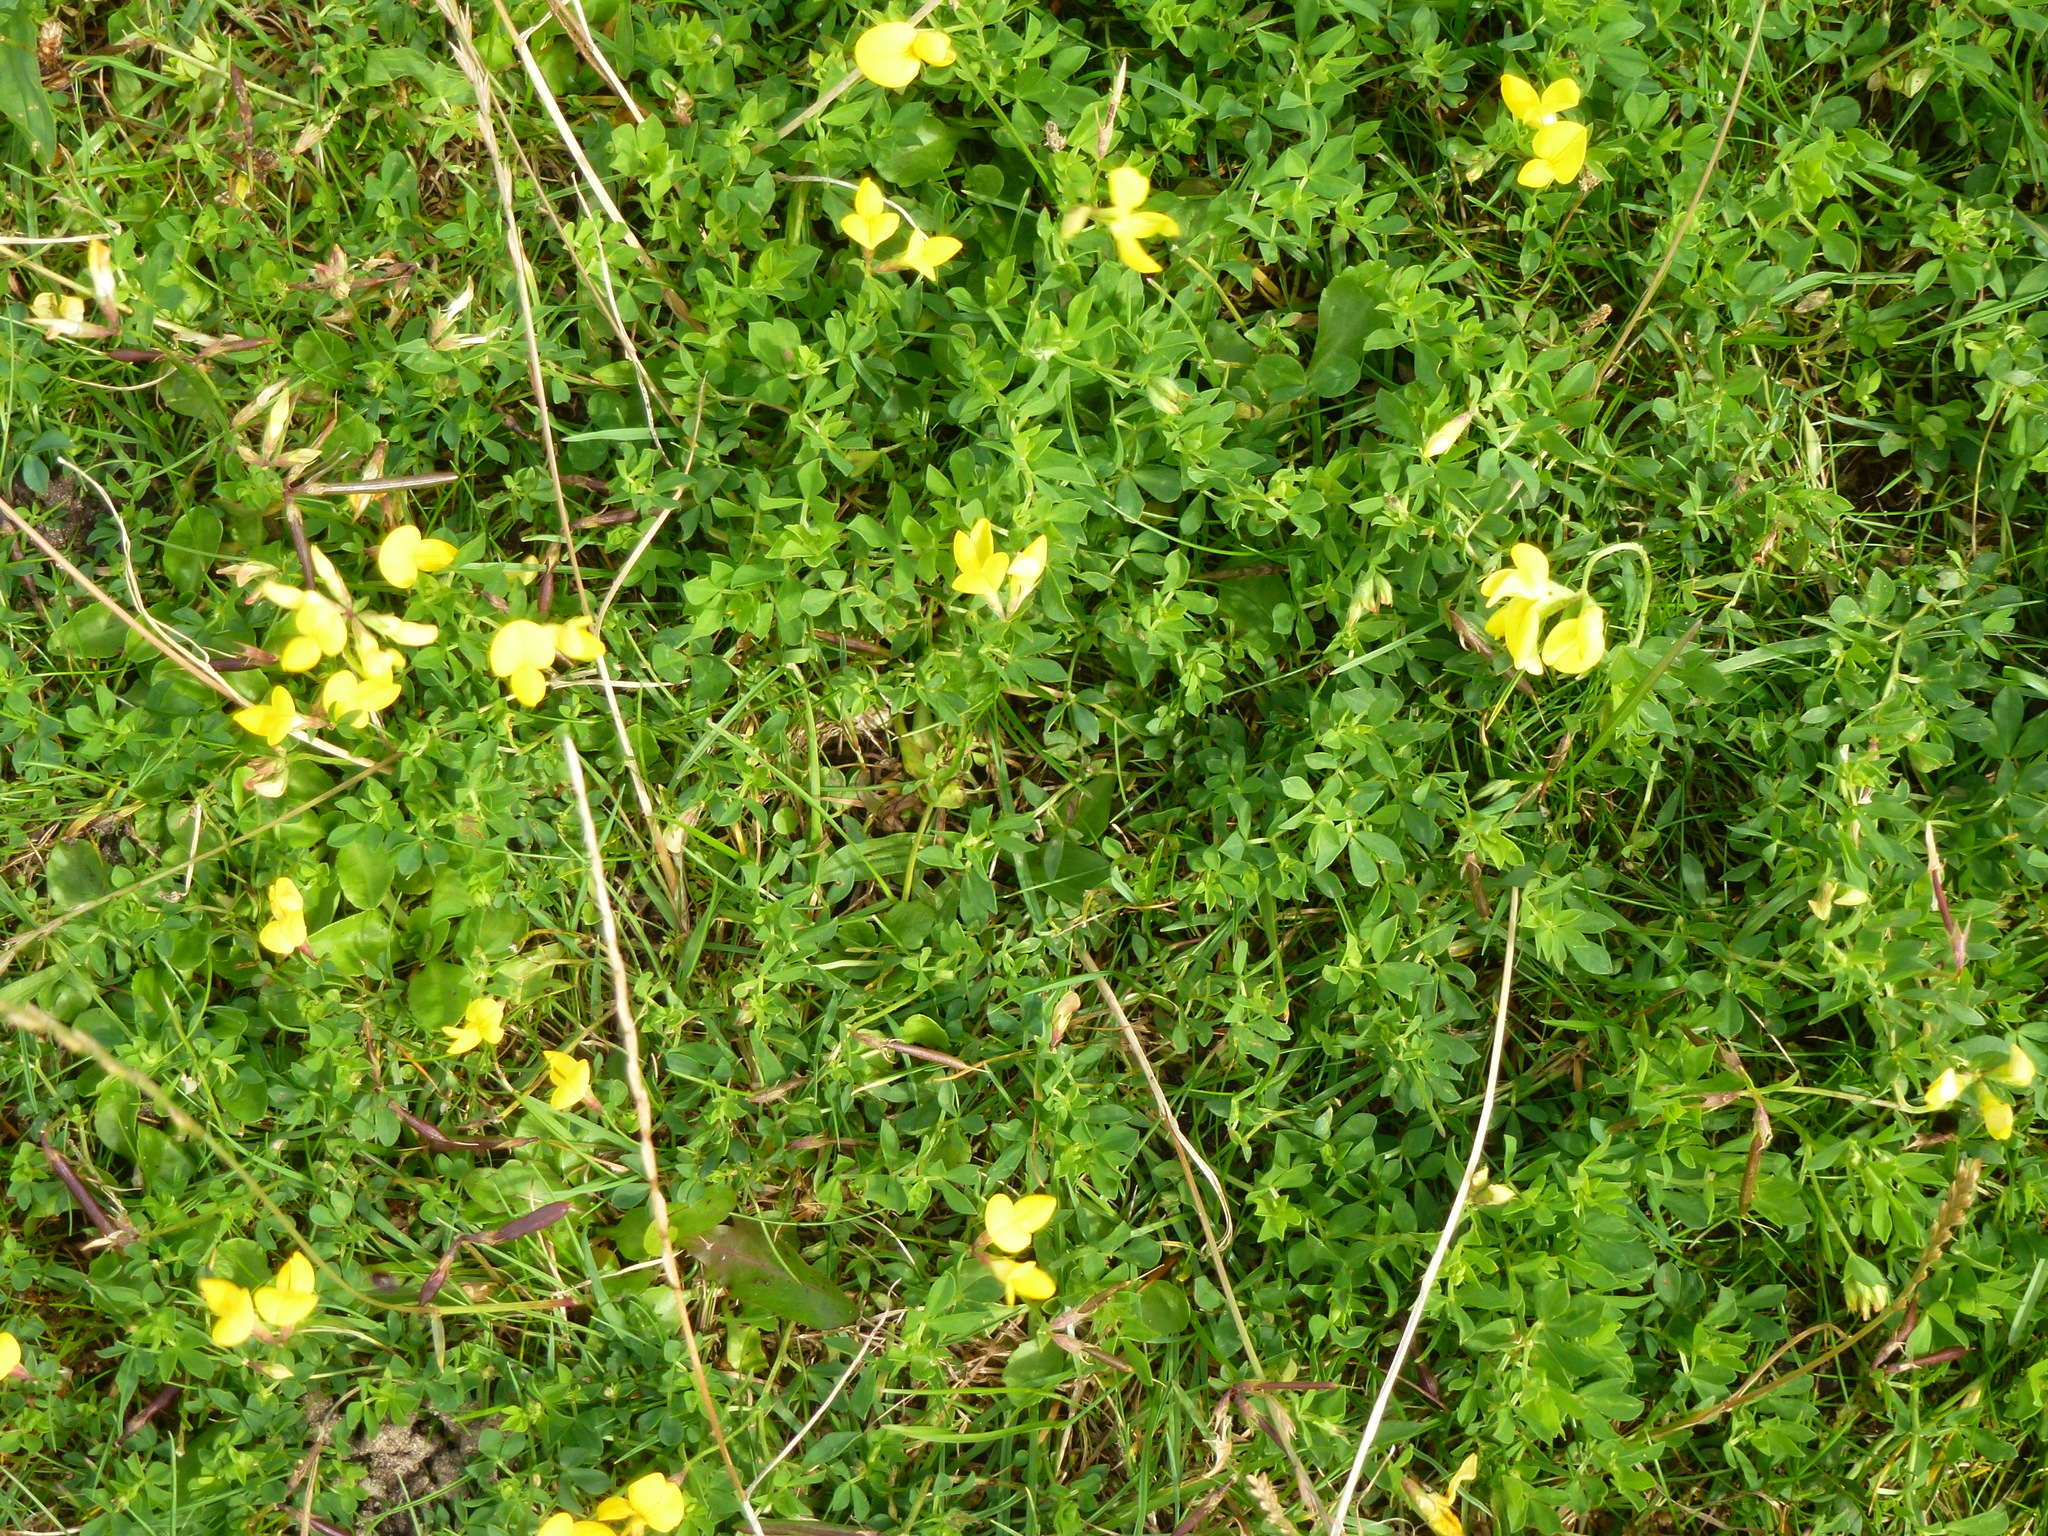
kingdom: Plantae
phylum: Tracheophyta
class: Magnoliopsida
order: Fabales
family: Fabaceae
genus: Lotus
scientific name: Lotus corniculatus
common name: Common bird's-foot-trefoil
